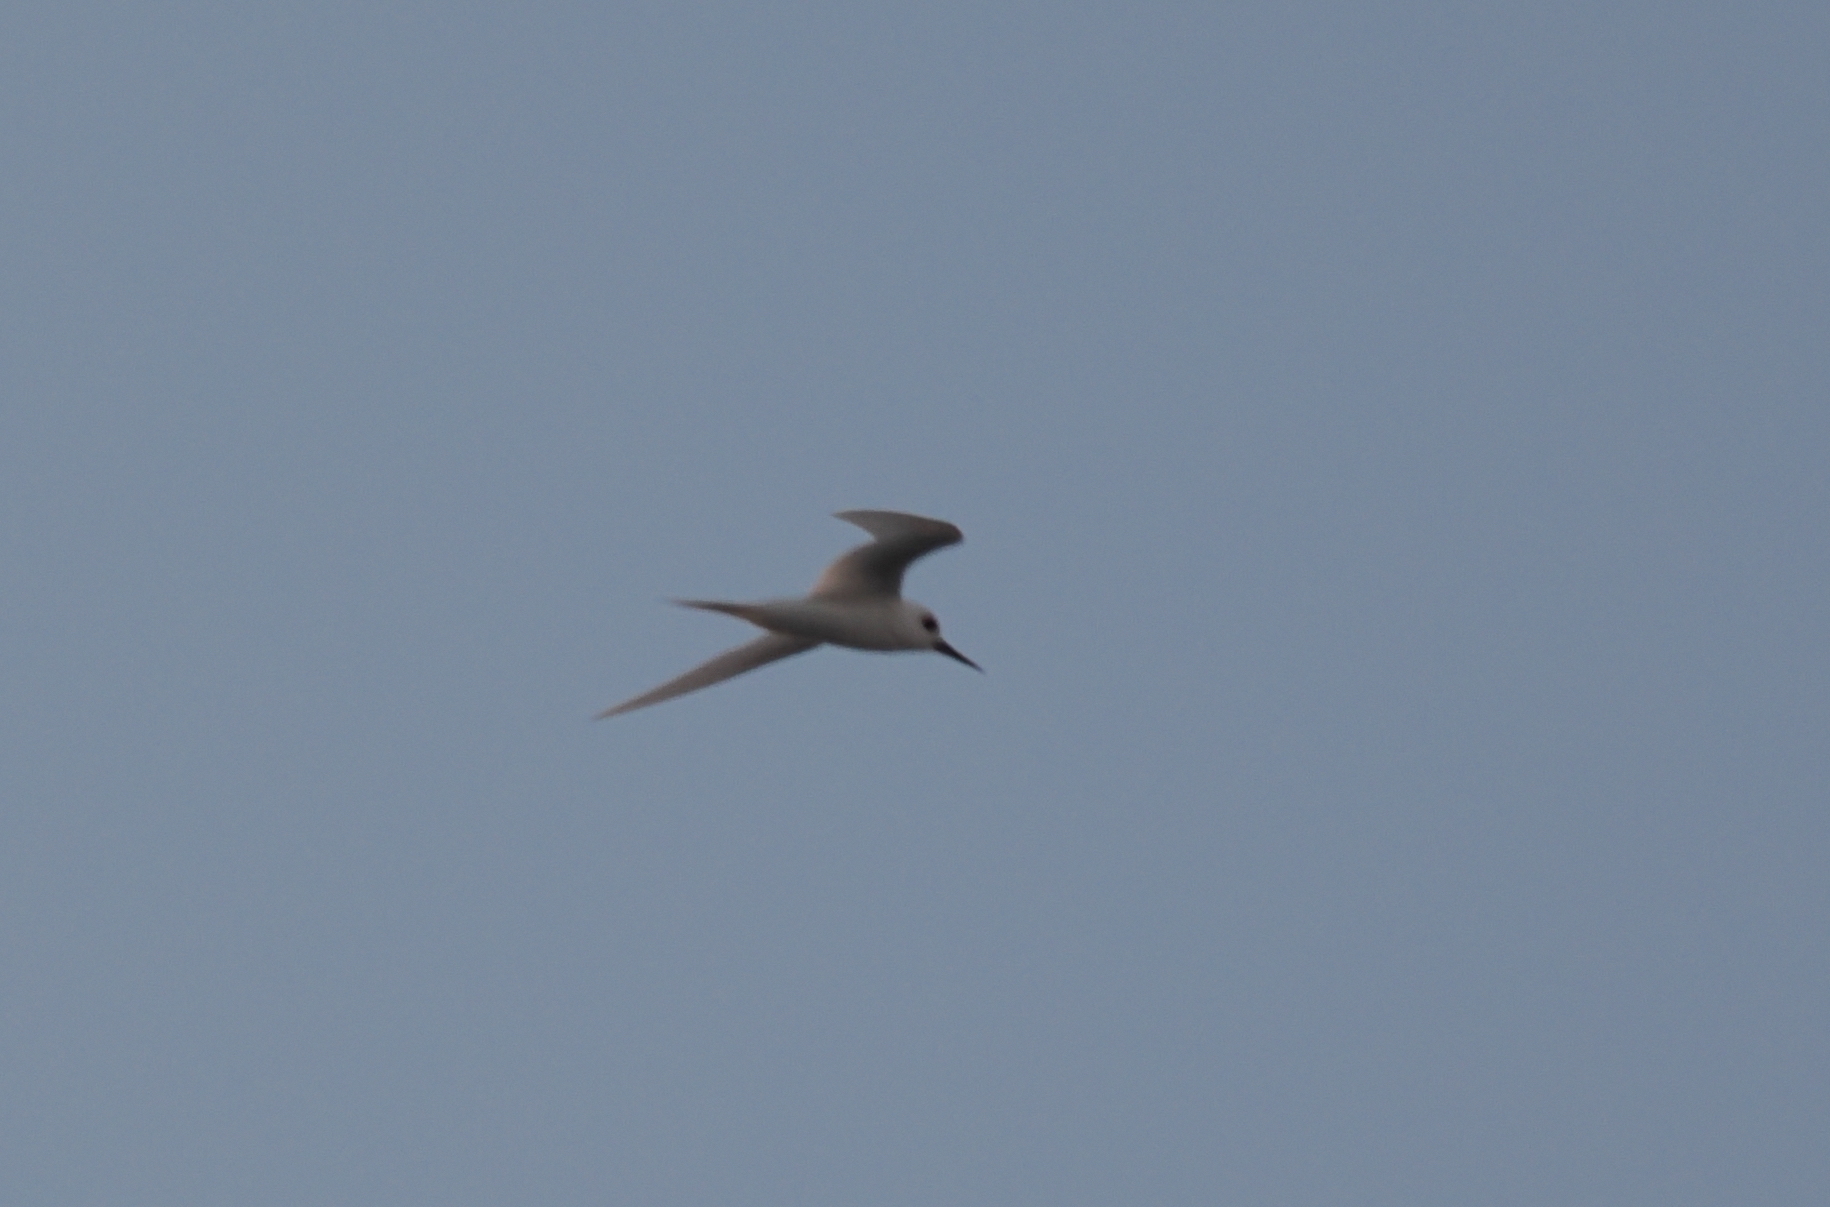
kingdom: Animalia
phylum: Chordata
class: Aves
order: Charadriiformes
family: Laridae
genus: Gygis
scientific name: Gygis alba
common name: White tern
